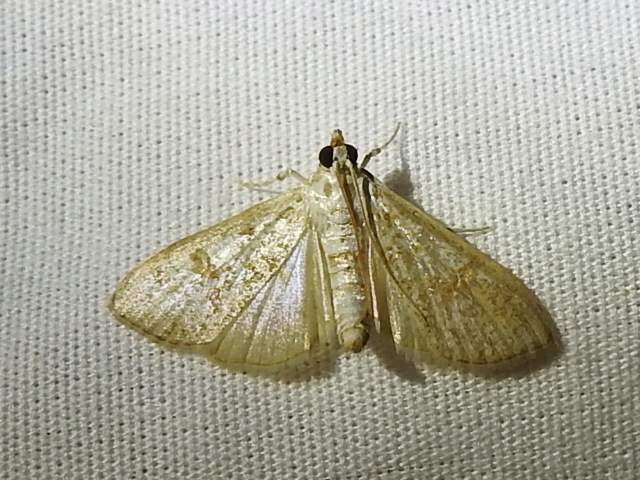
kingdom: Animalia
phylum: Arthropoda
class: Insecta
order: Lepidoptera
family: Crambidae
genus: Palpita
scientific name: Palpita freemanalis
